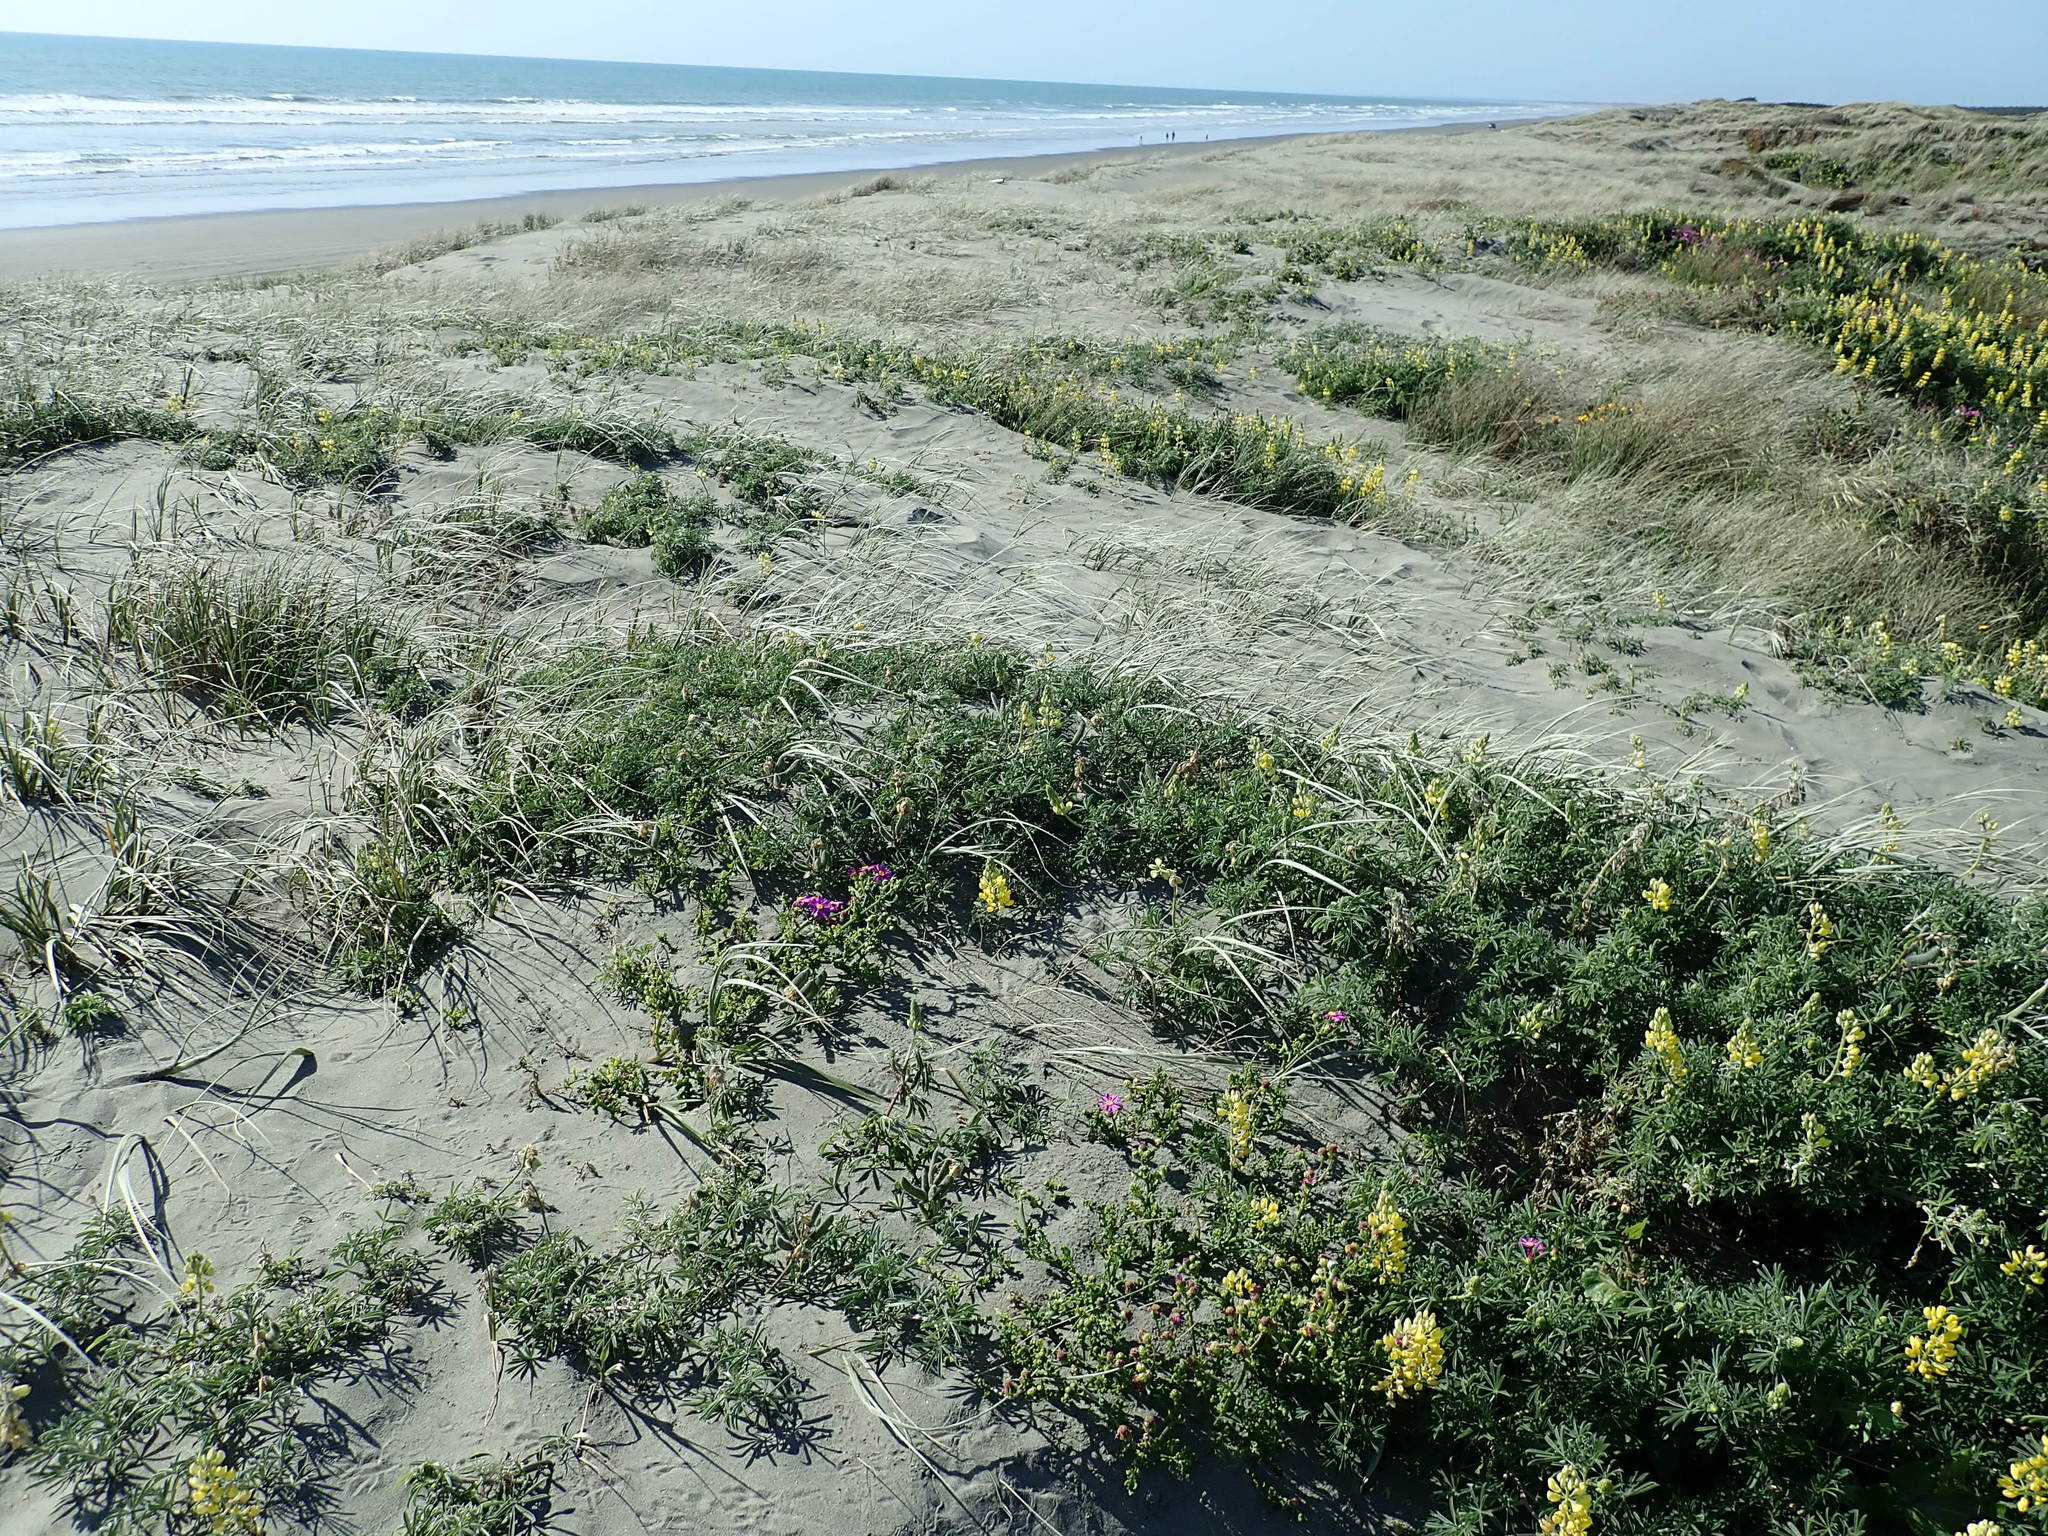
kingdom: Plantae
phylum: Tracheophyta
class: Magnoliopsida
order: Fabales
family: Fabaceae
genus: Lupinus
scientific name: Lupinus arboreus
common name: Yellow bush lupine
